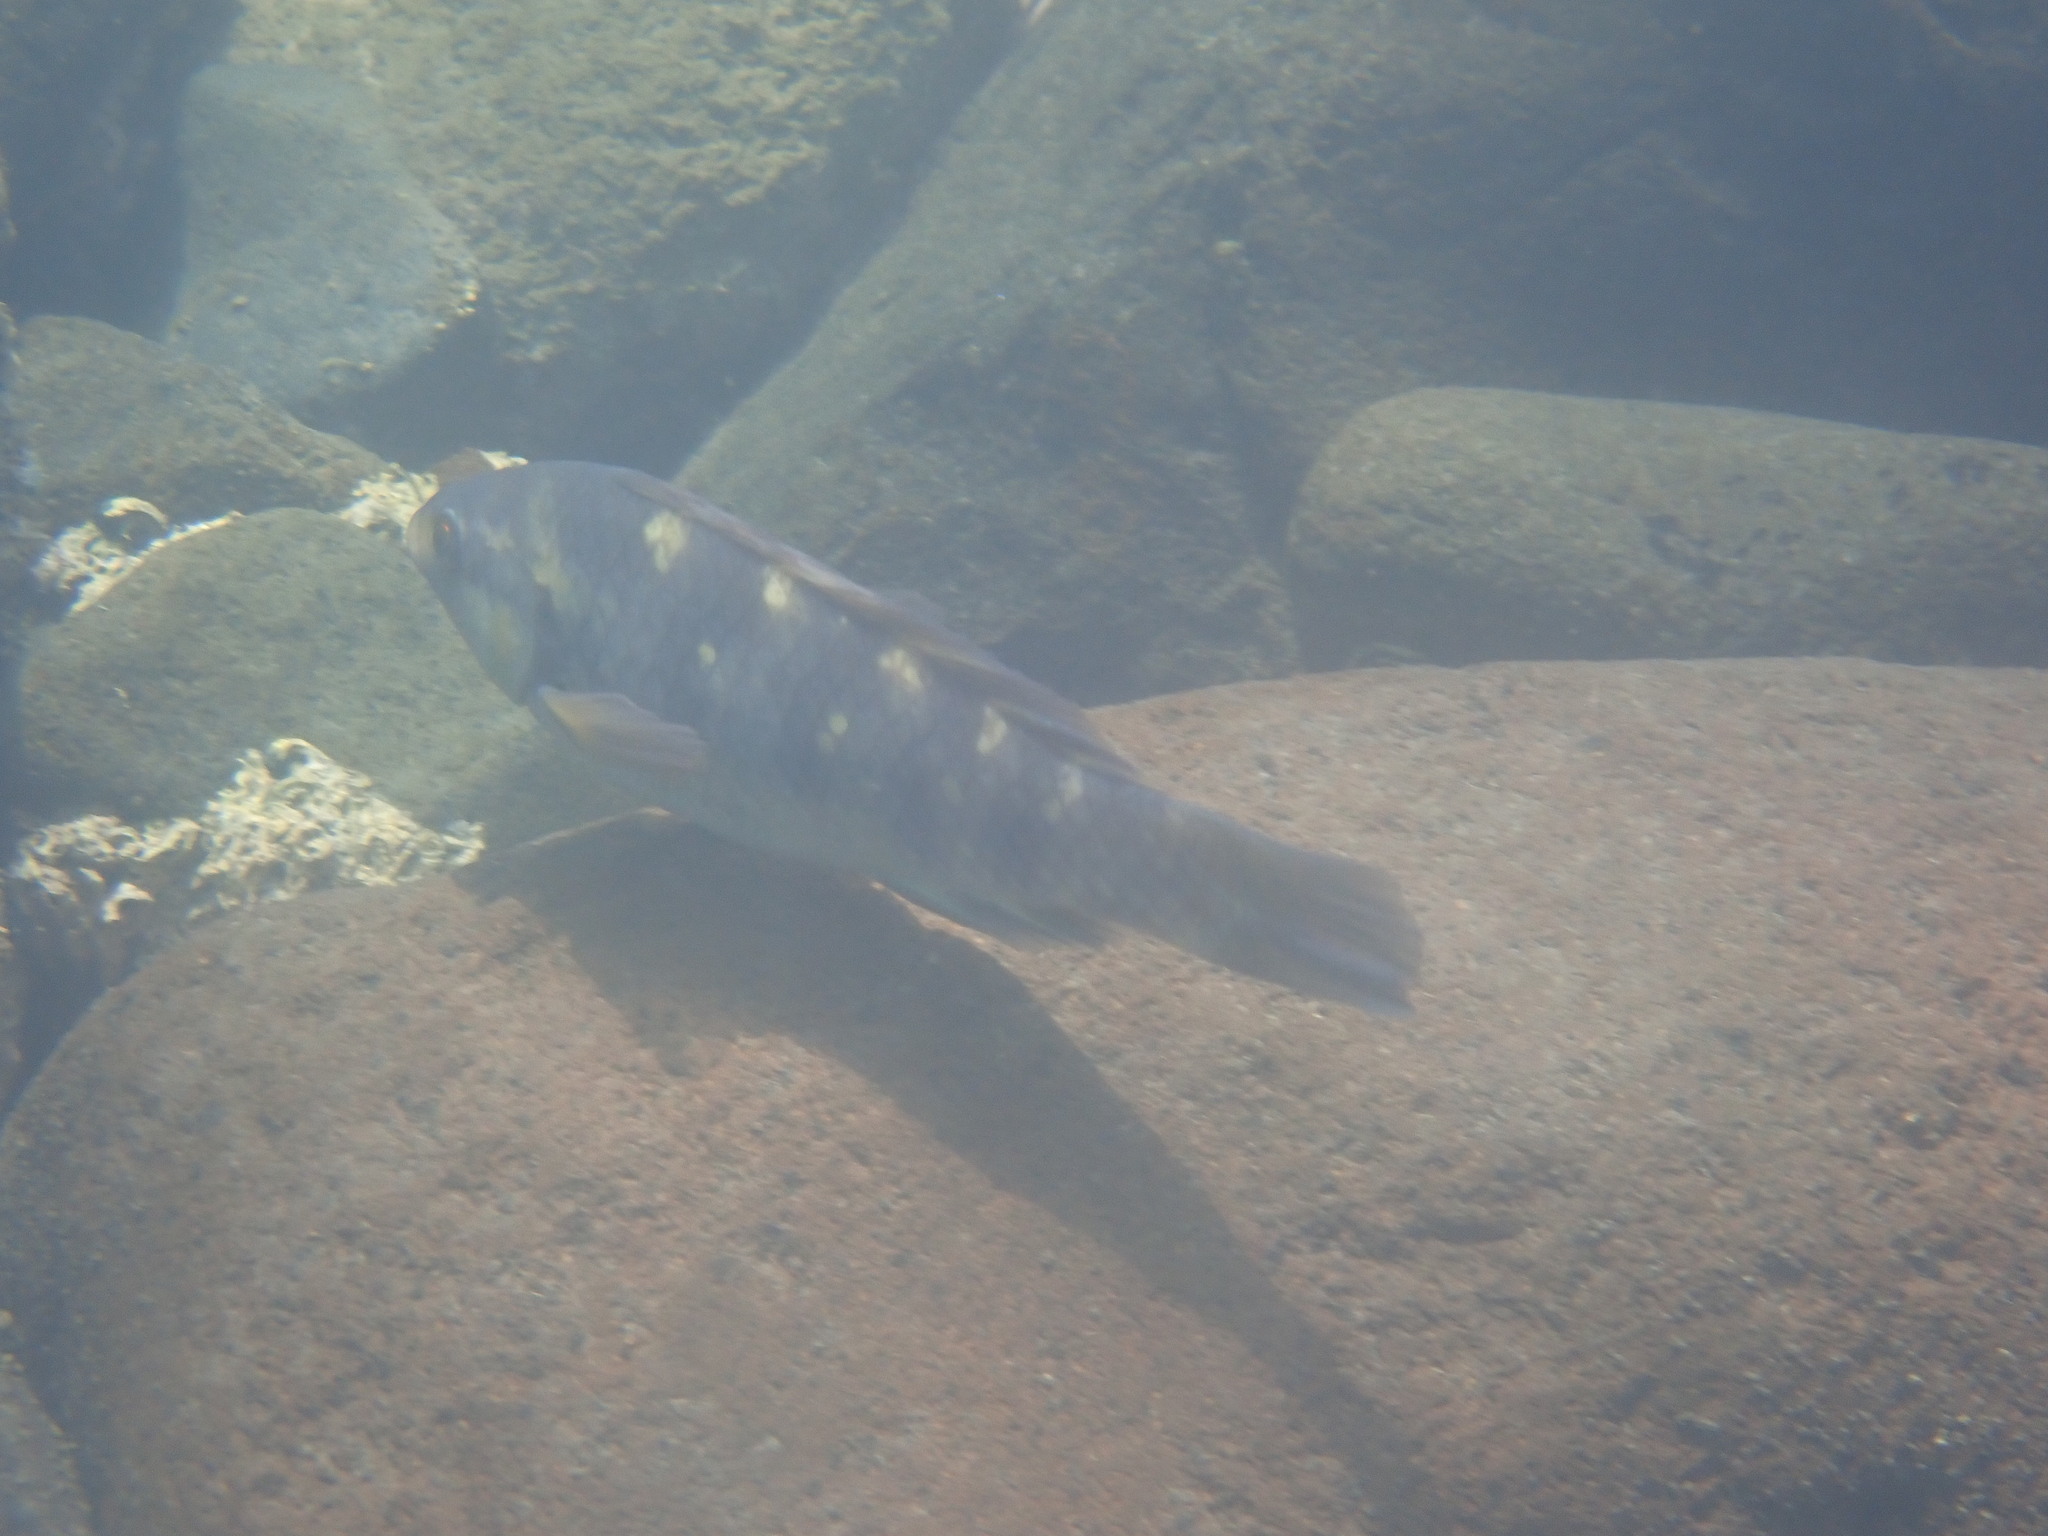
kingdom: Animalia
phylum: Chordata
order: Perciformes
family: Labridae
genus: Notolabrus
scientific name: Notolabrus fucicola
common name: Banded parrotfish
